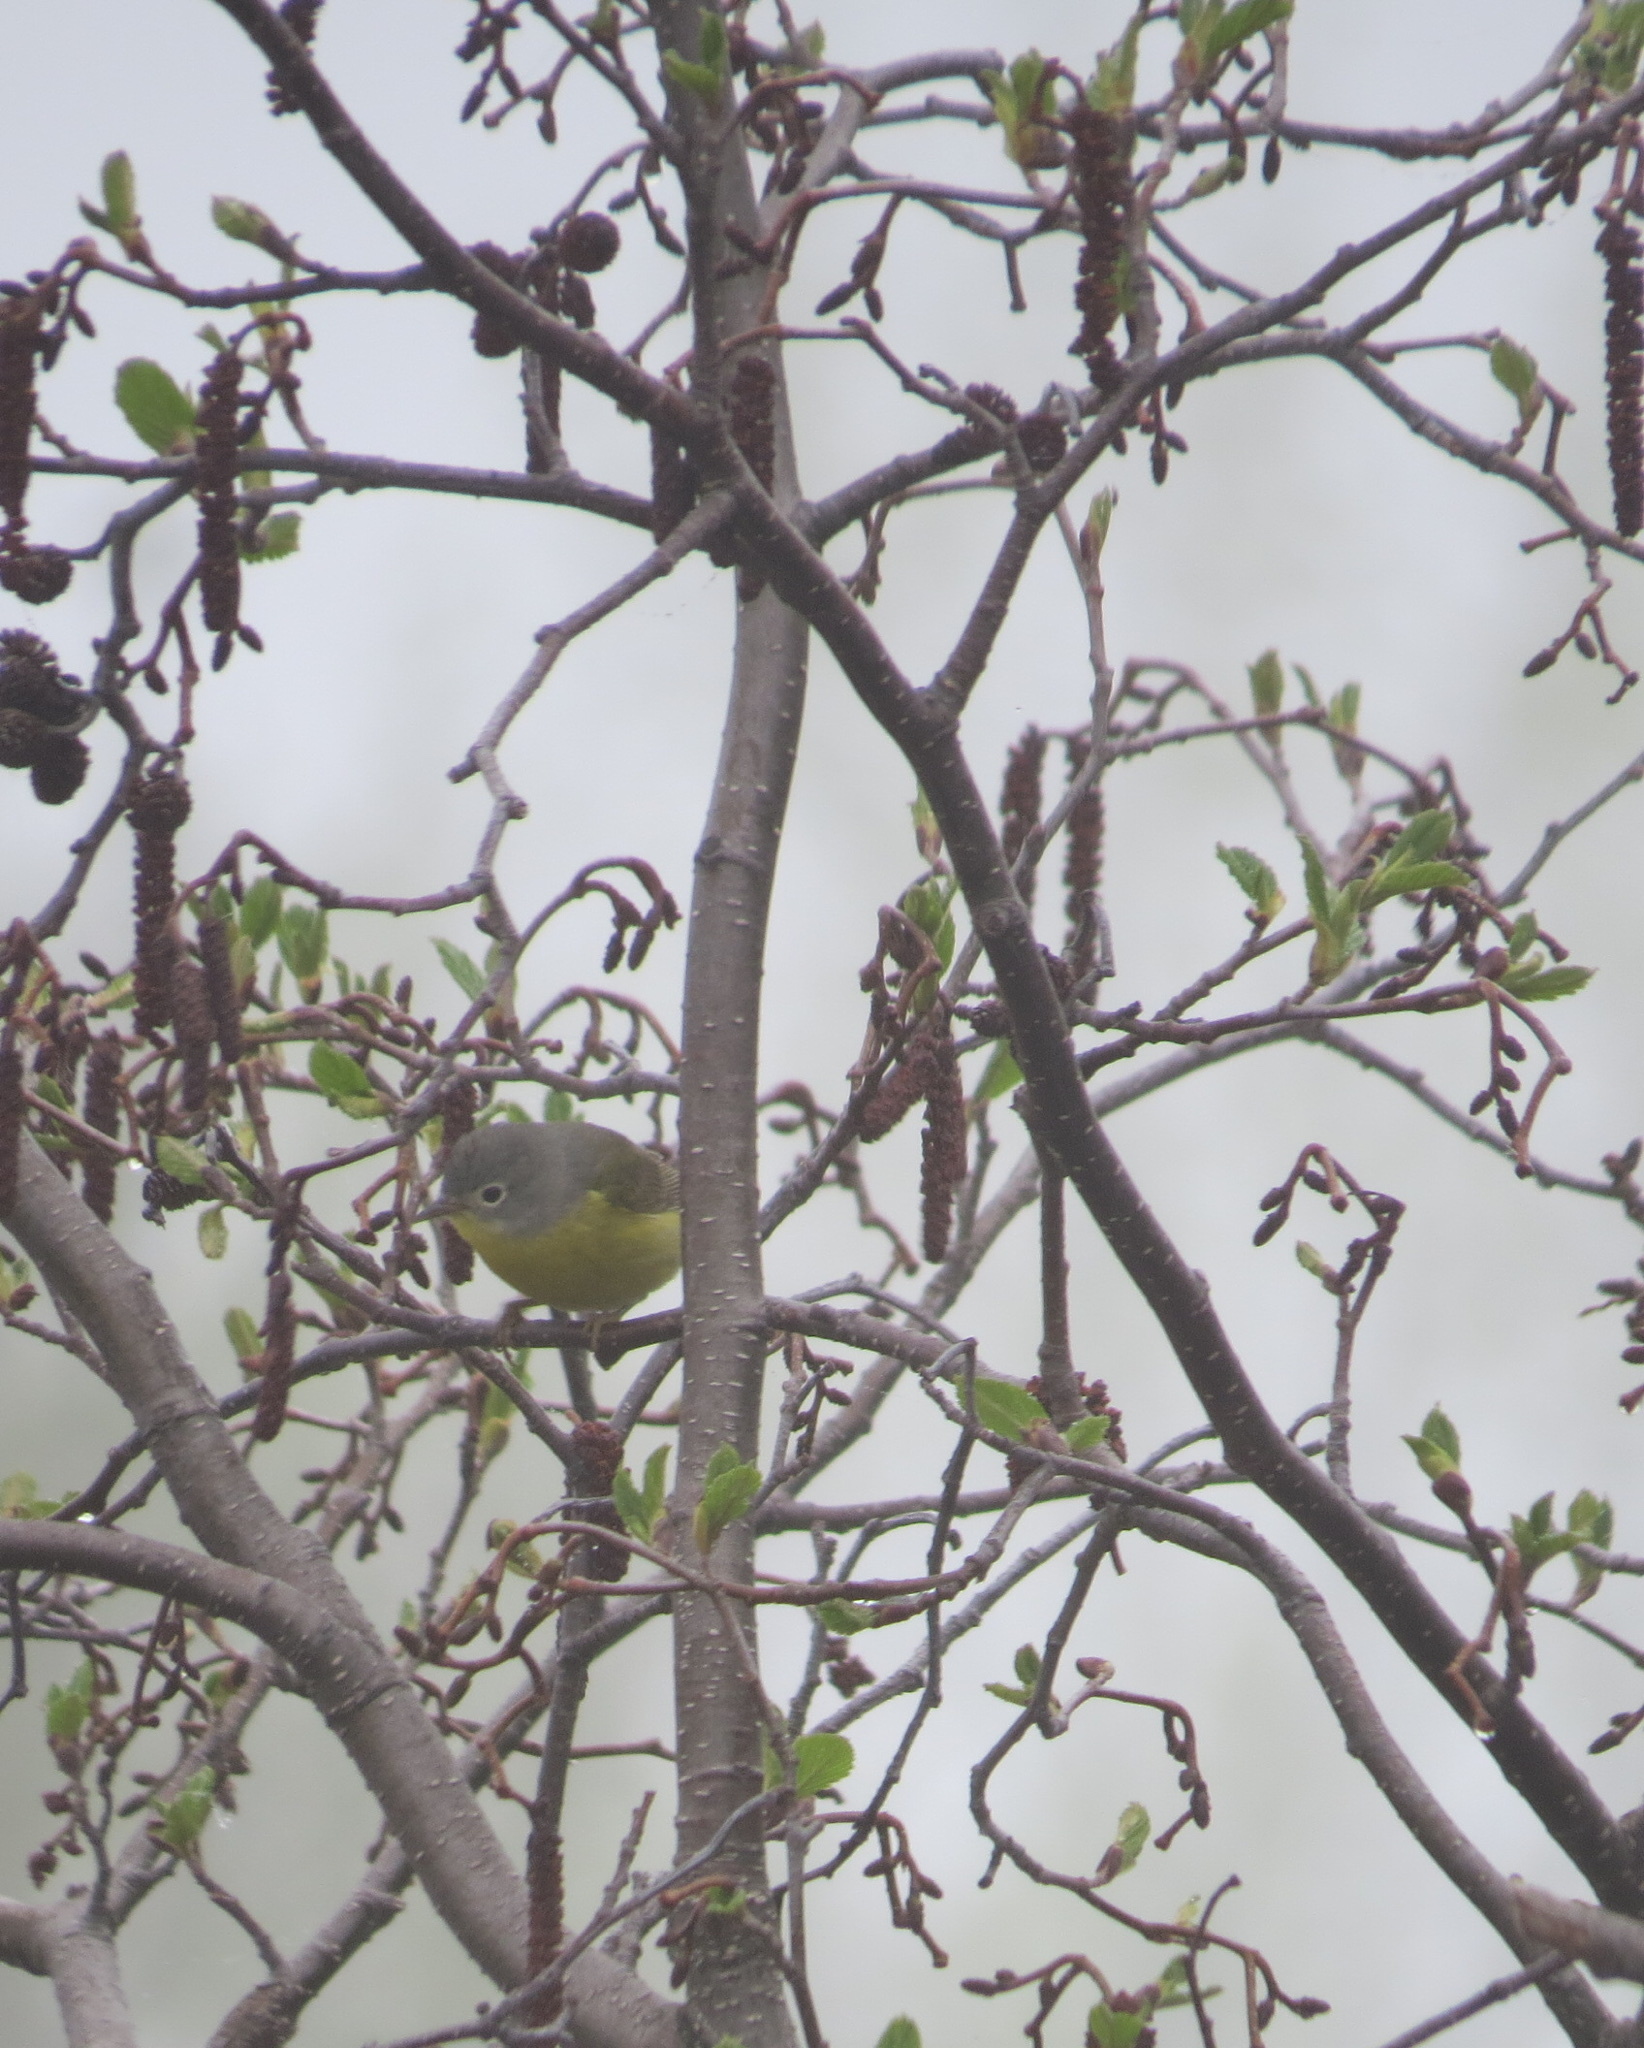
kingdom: Animalia
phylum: Chordata
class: Aves
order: Passeriformes
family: Parulidae
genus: Leiothlypis
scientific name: Leiothlypis ruficapilla
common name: Nashville warbler
